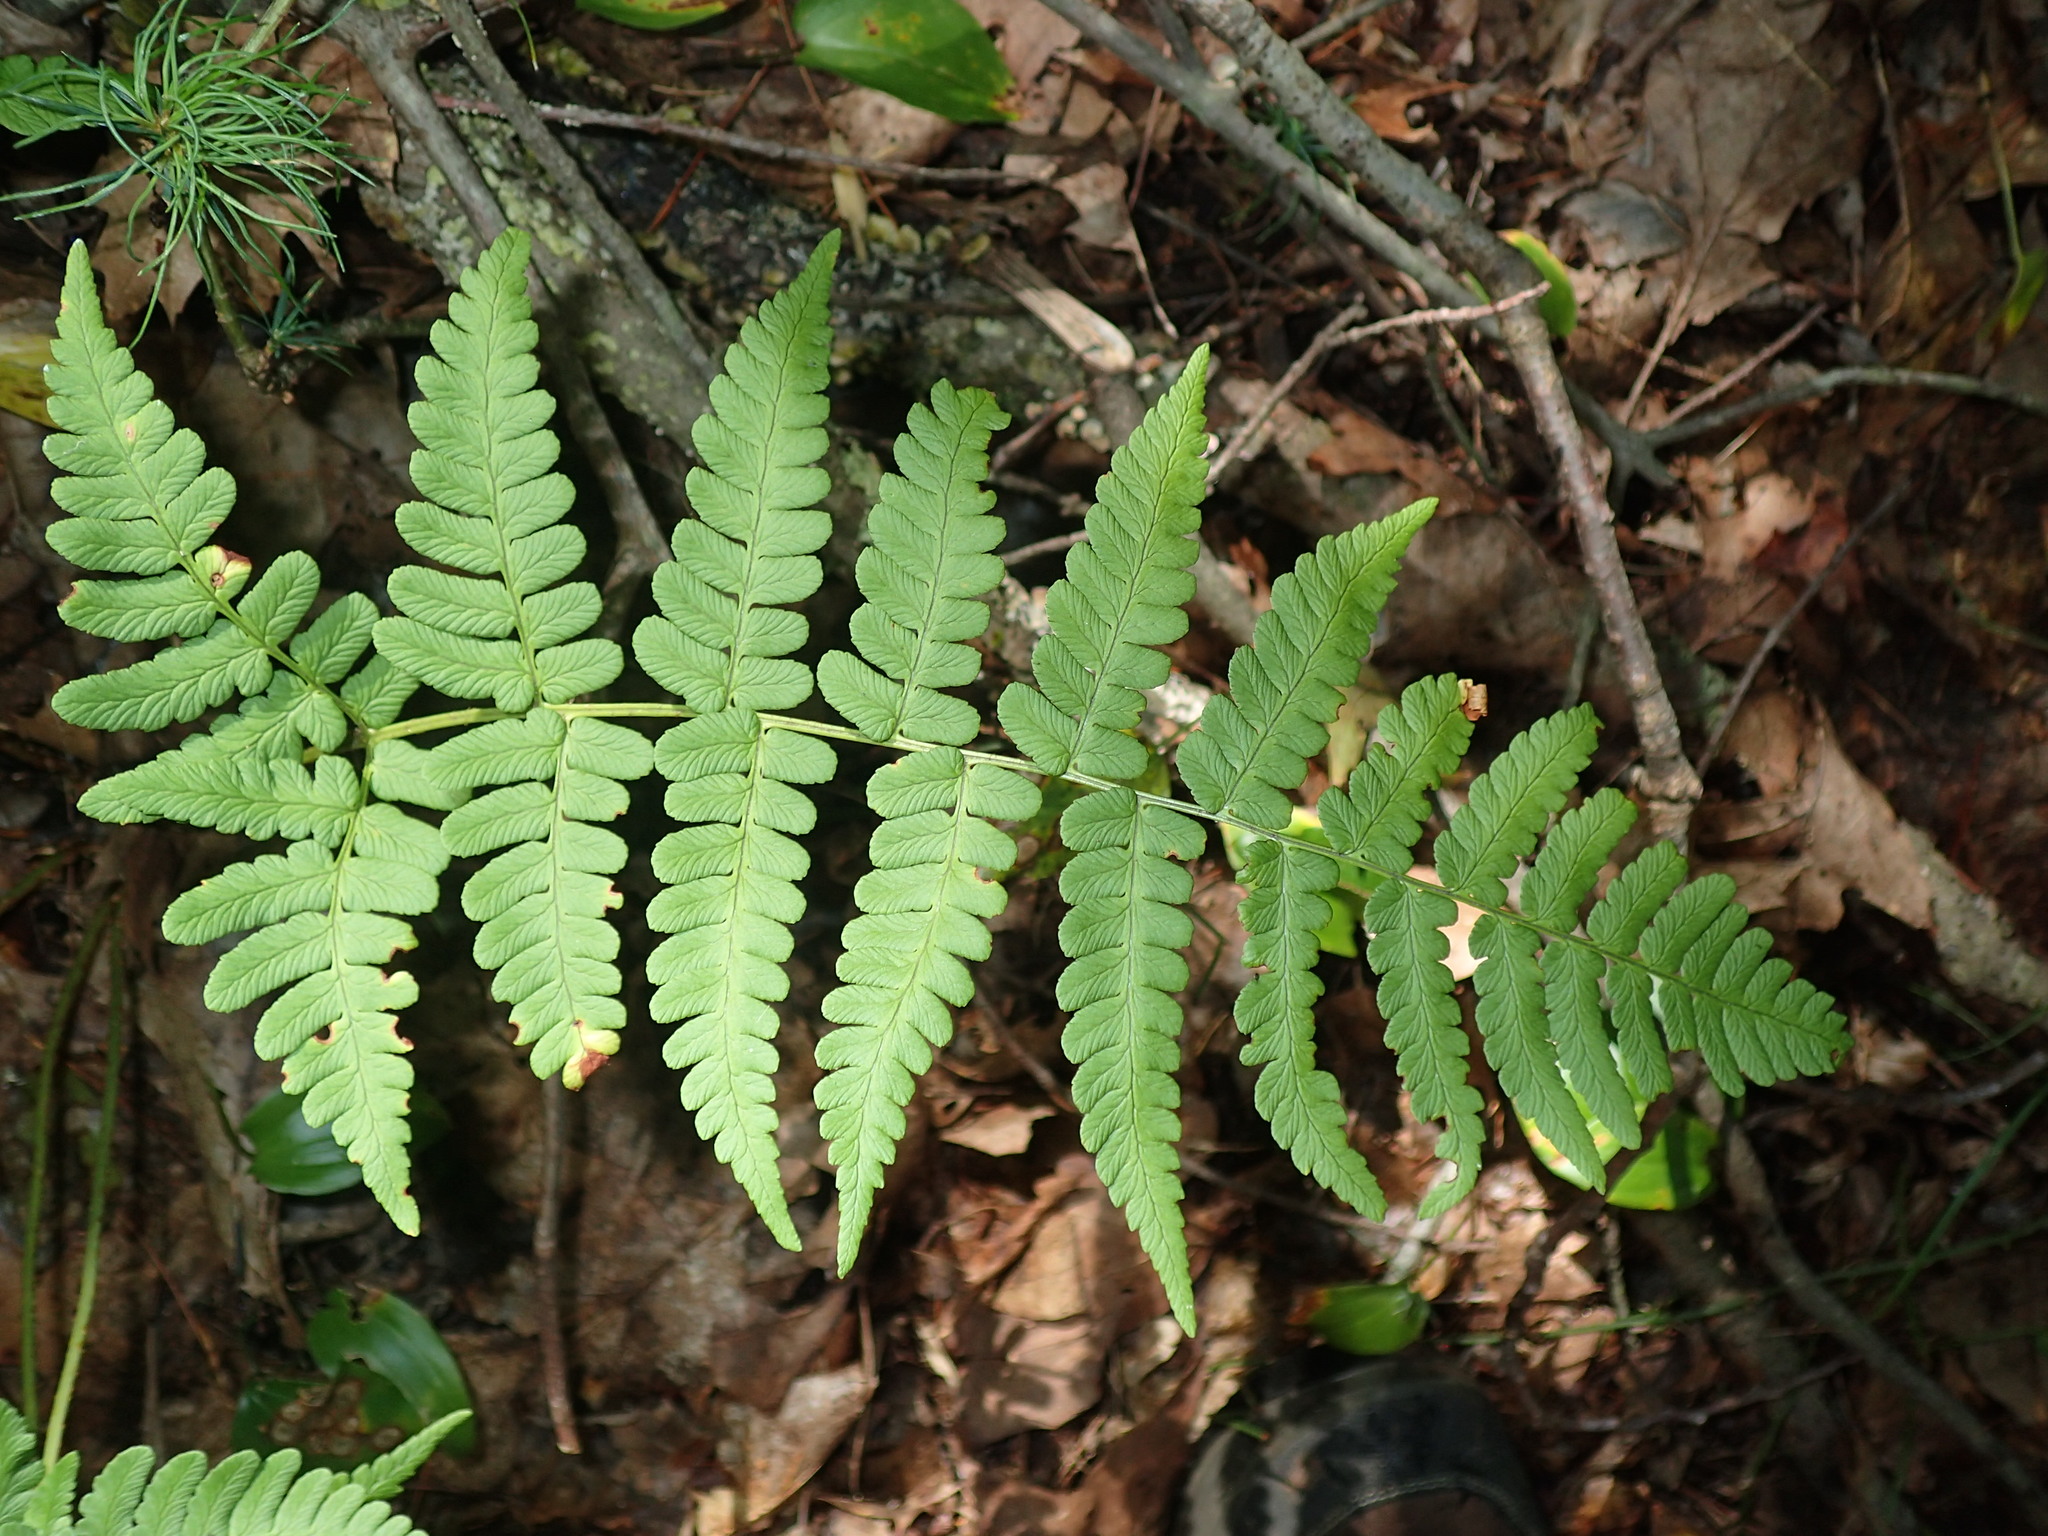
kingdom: Plantae
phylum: Tracheophyta
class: Polypodiopsida
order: Polypodiales
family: Dryopteridaceae
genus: Dryopteris
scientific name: Dryopteris marginalis
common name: Marginal wood fern
